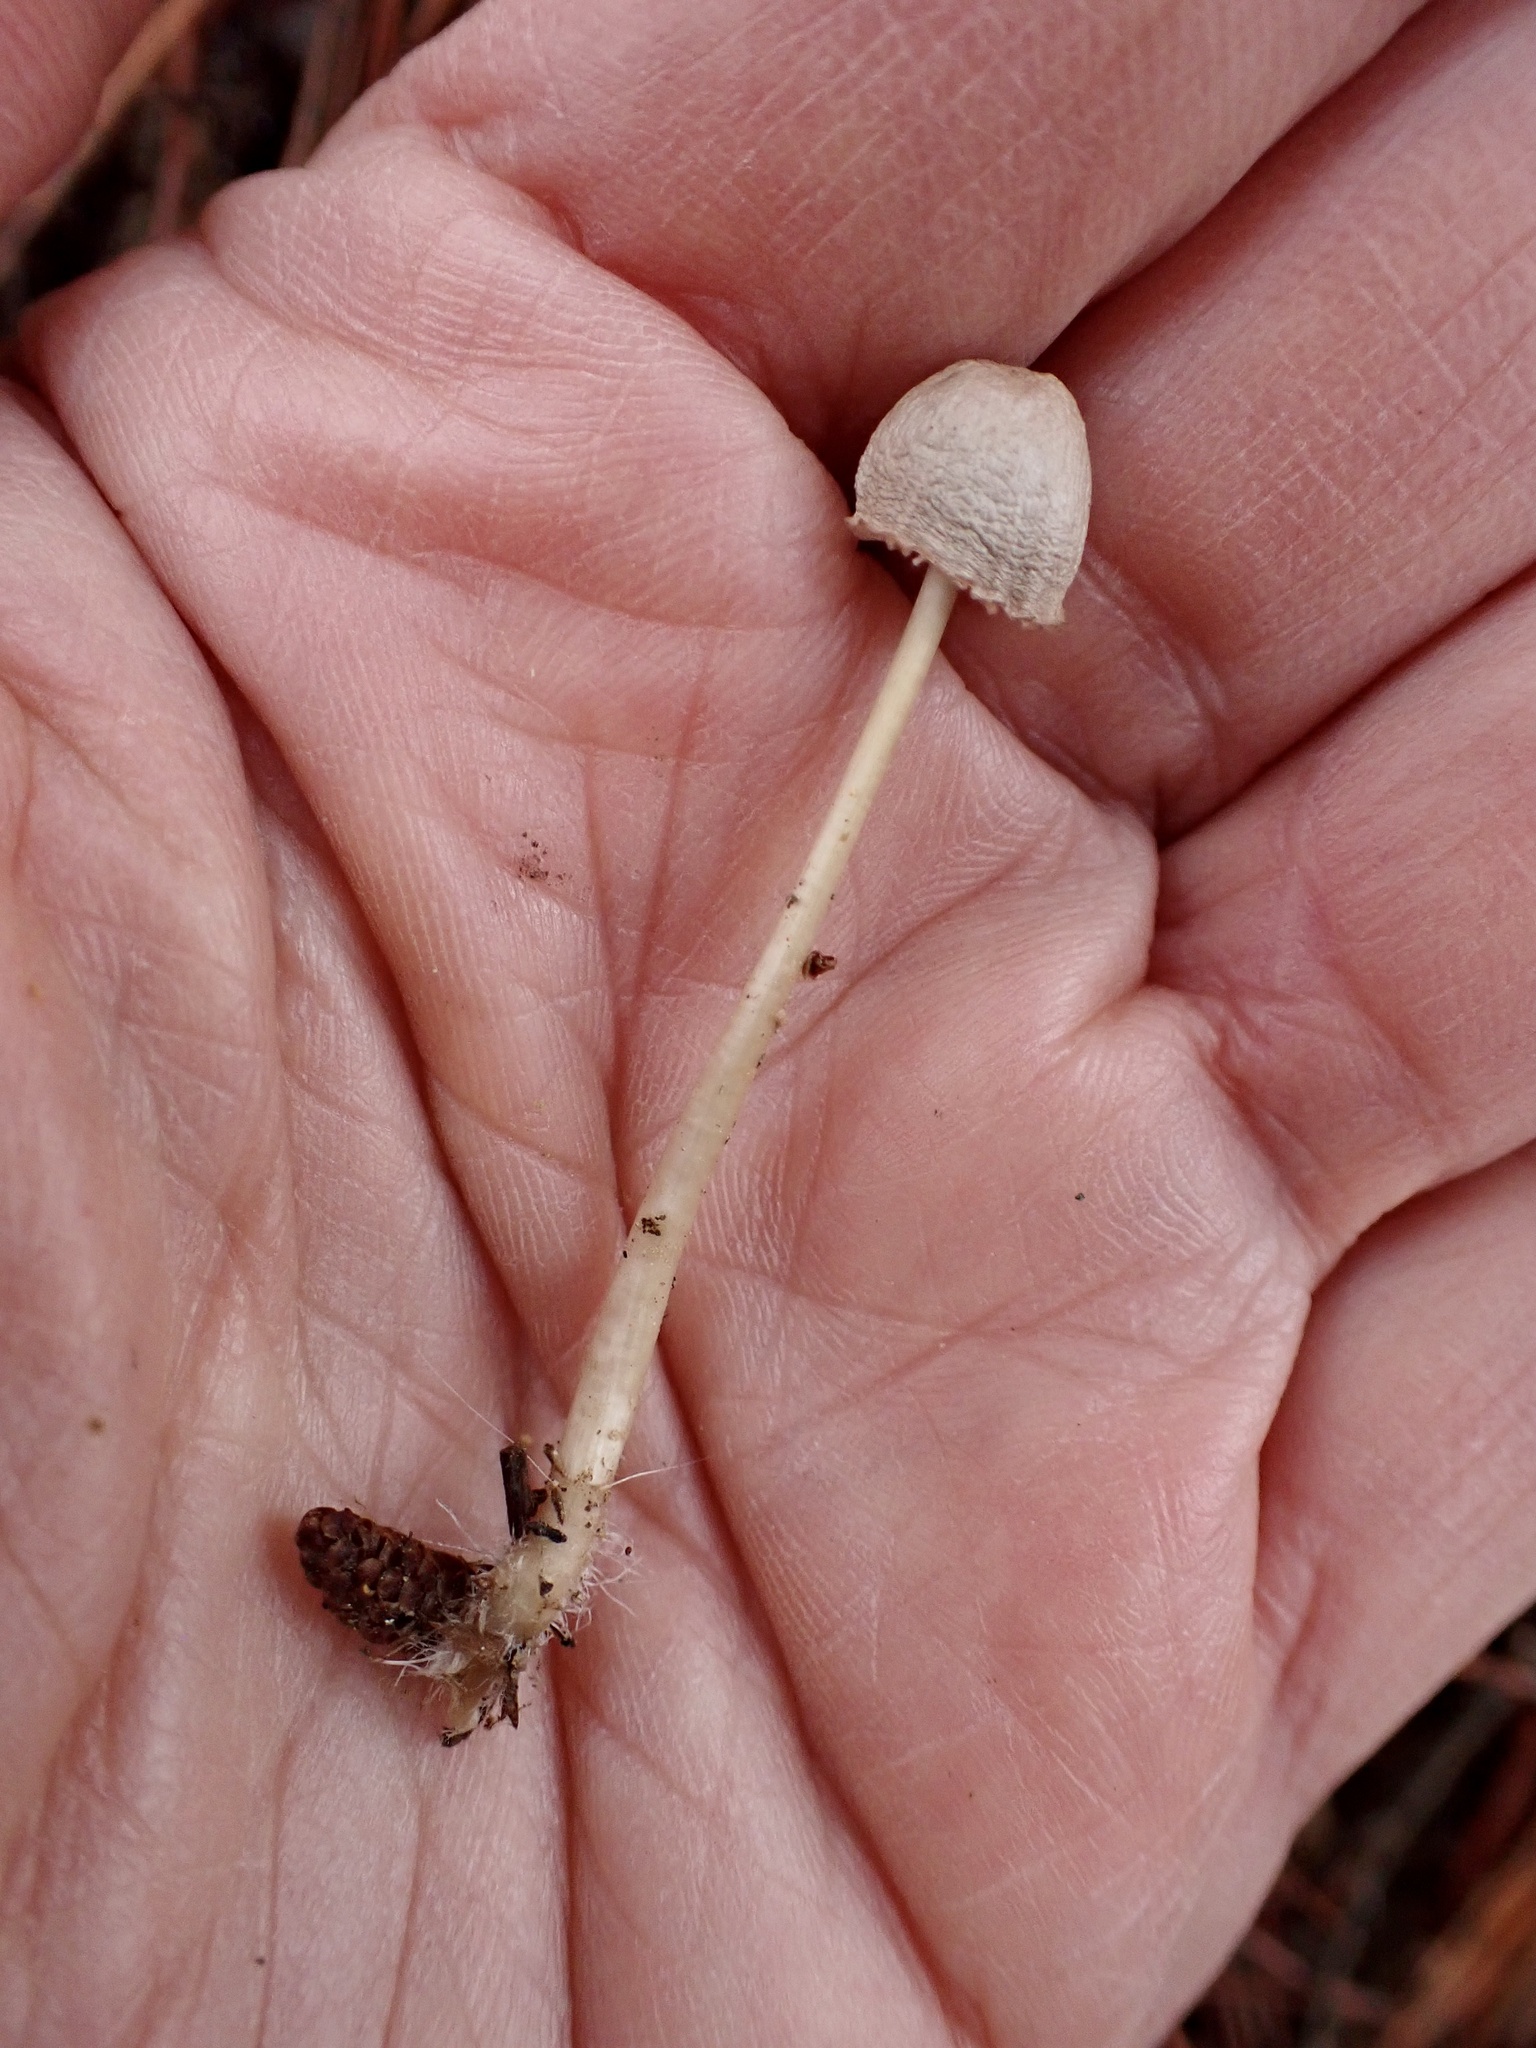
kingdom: Fungi
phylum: Basidiomycota
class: Agaricomycetes
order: Agaricales
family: Mycenaceae
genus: Mycena
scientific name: Mycena capillaripes
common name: Pinkedge bonnet
